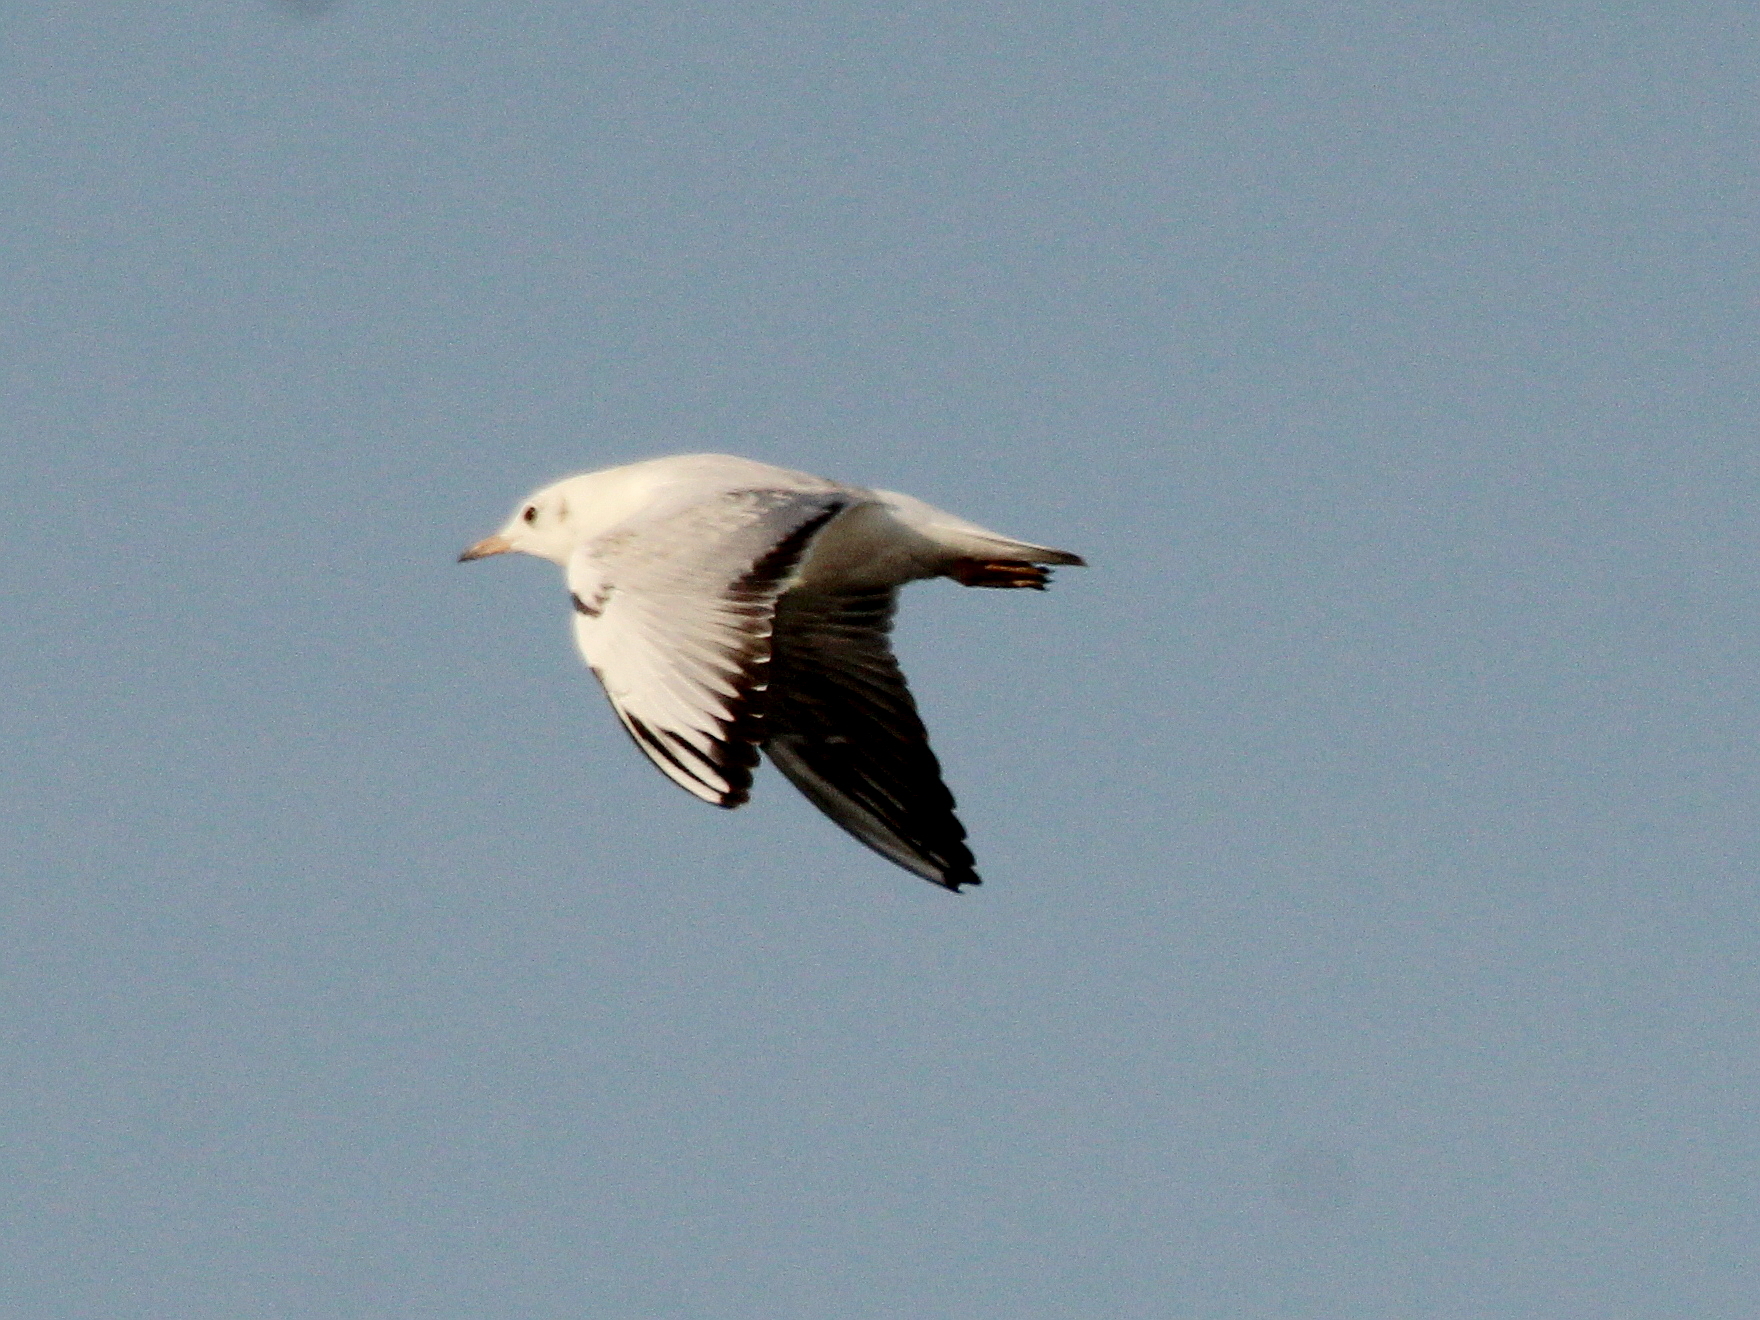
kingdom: Animalia
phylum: Chordata
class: Aves
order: Charadriiformes
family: Laridae
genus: Chroicocephalus
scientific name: Chroicocephalus ridibundus
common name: Black-headed gull
